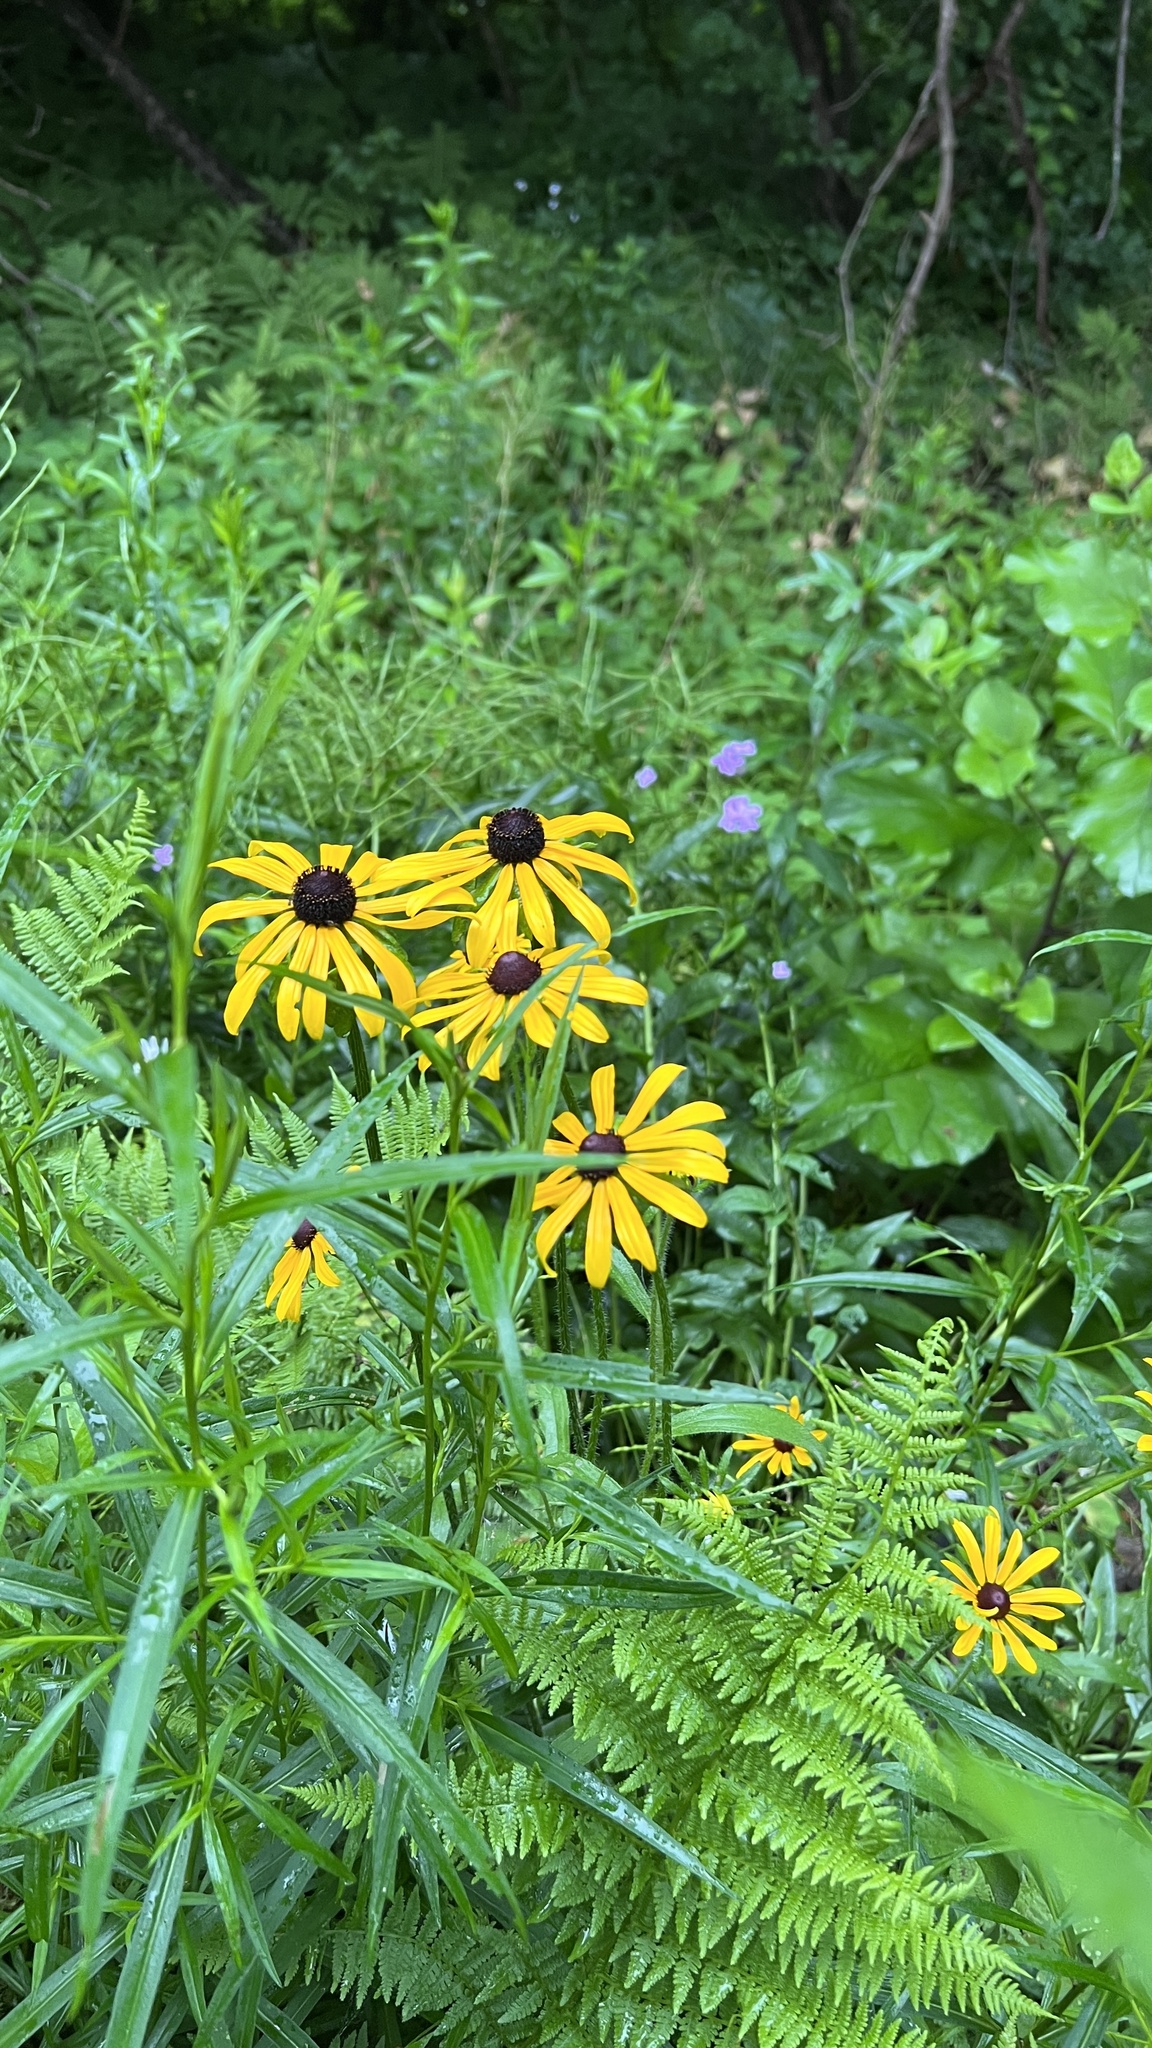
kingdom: Plantae
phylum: Tracheophyta
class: Magnoliopsida
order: Asterales
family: Asteraceae
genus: Rudbeckia
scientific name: Rudbeckia hirta
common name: Black-eyed-susan
